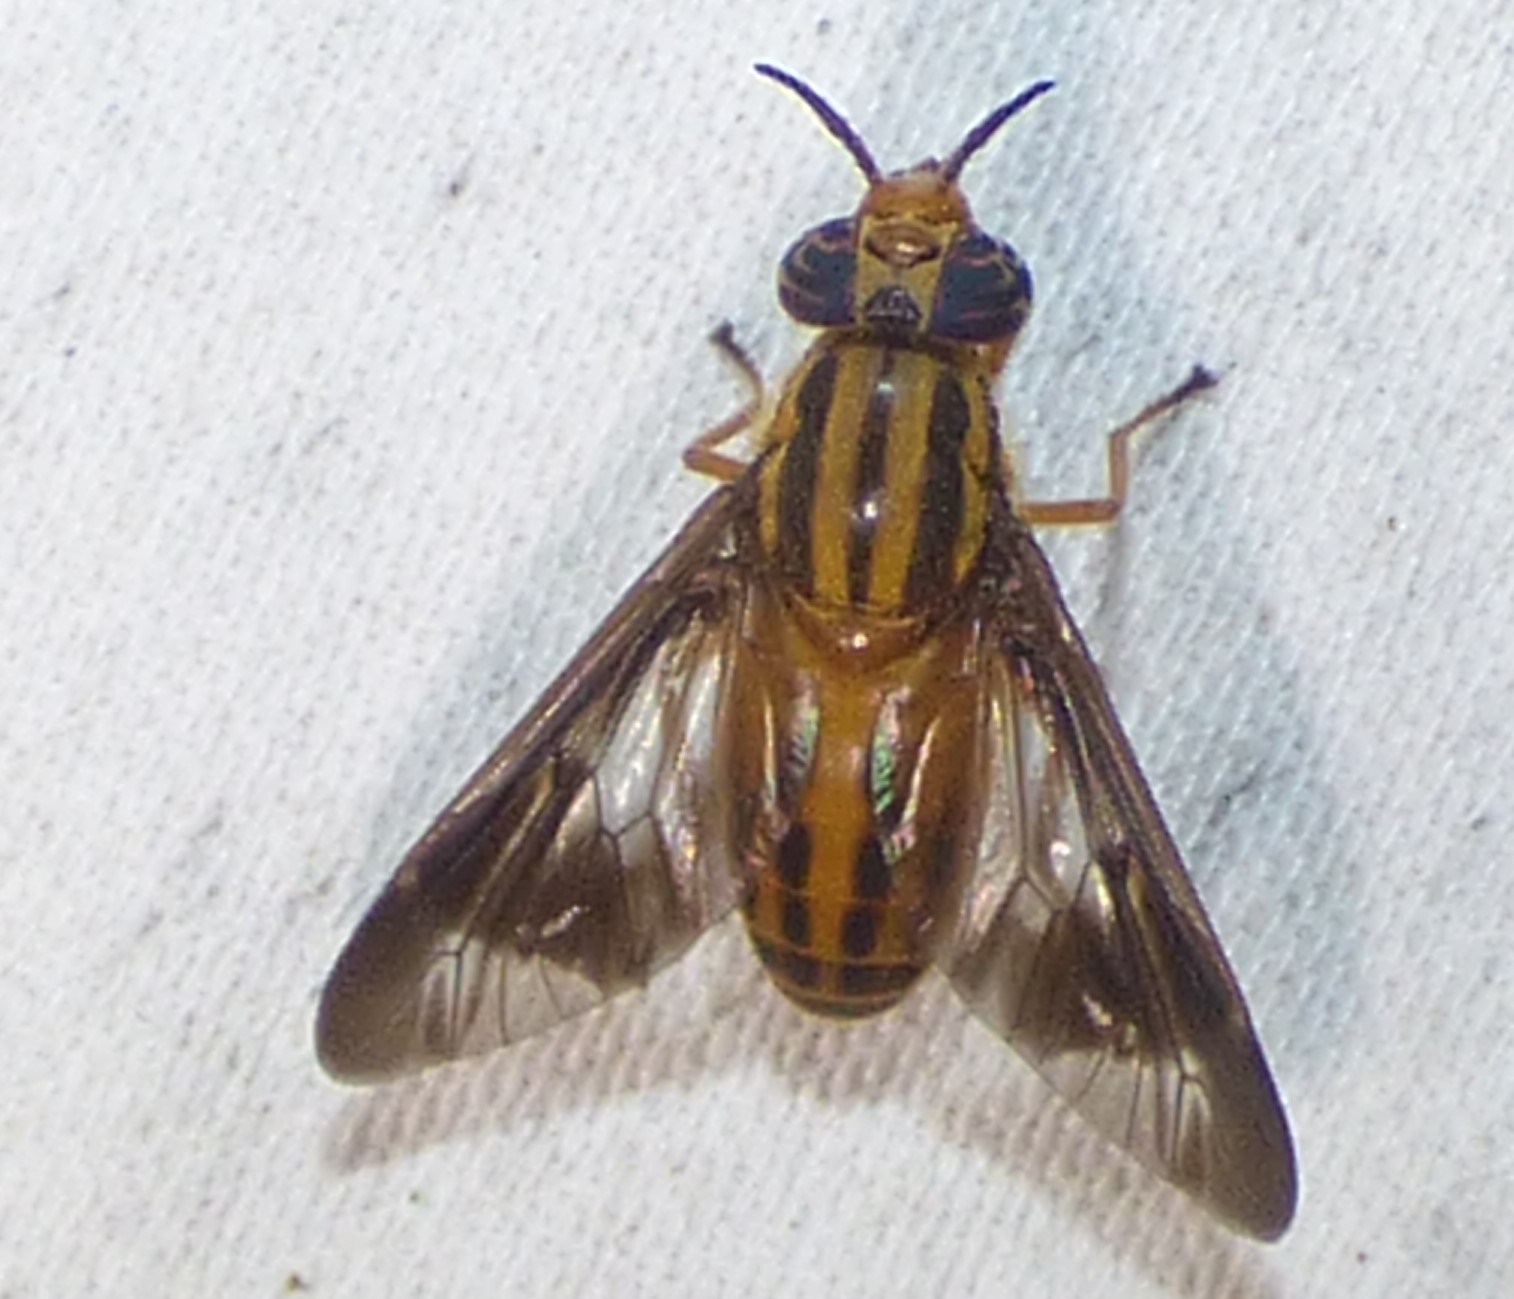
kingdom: Animalia
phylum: Arthropoda
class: Insecta
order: Diptera
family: Tabanidae
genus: Chrysops
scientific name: Chrysops vittatus
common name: Striped deer fly
